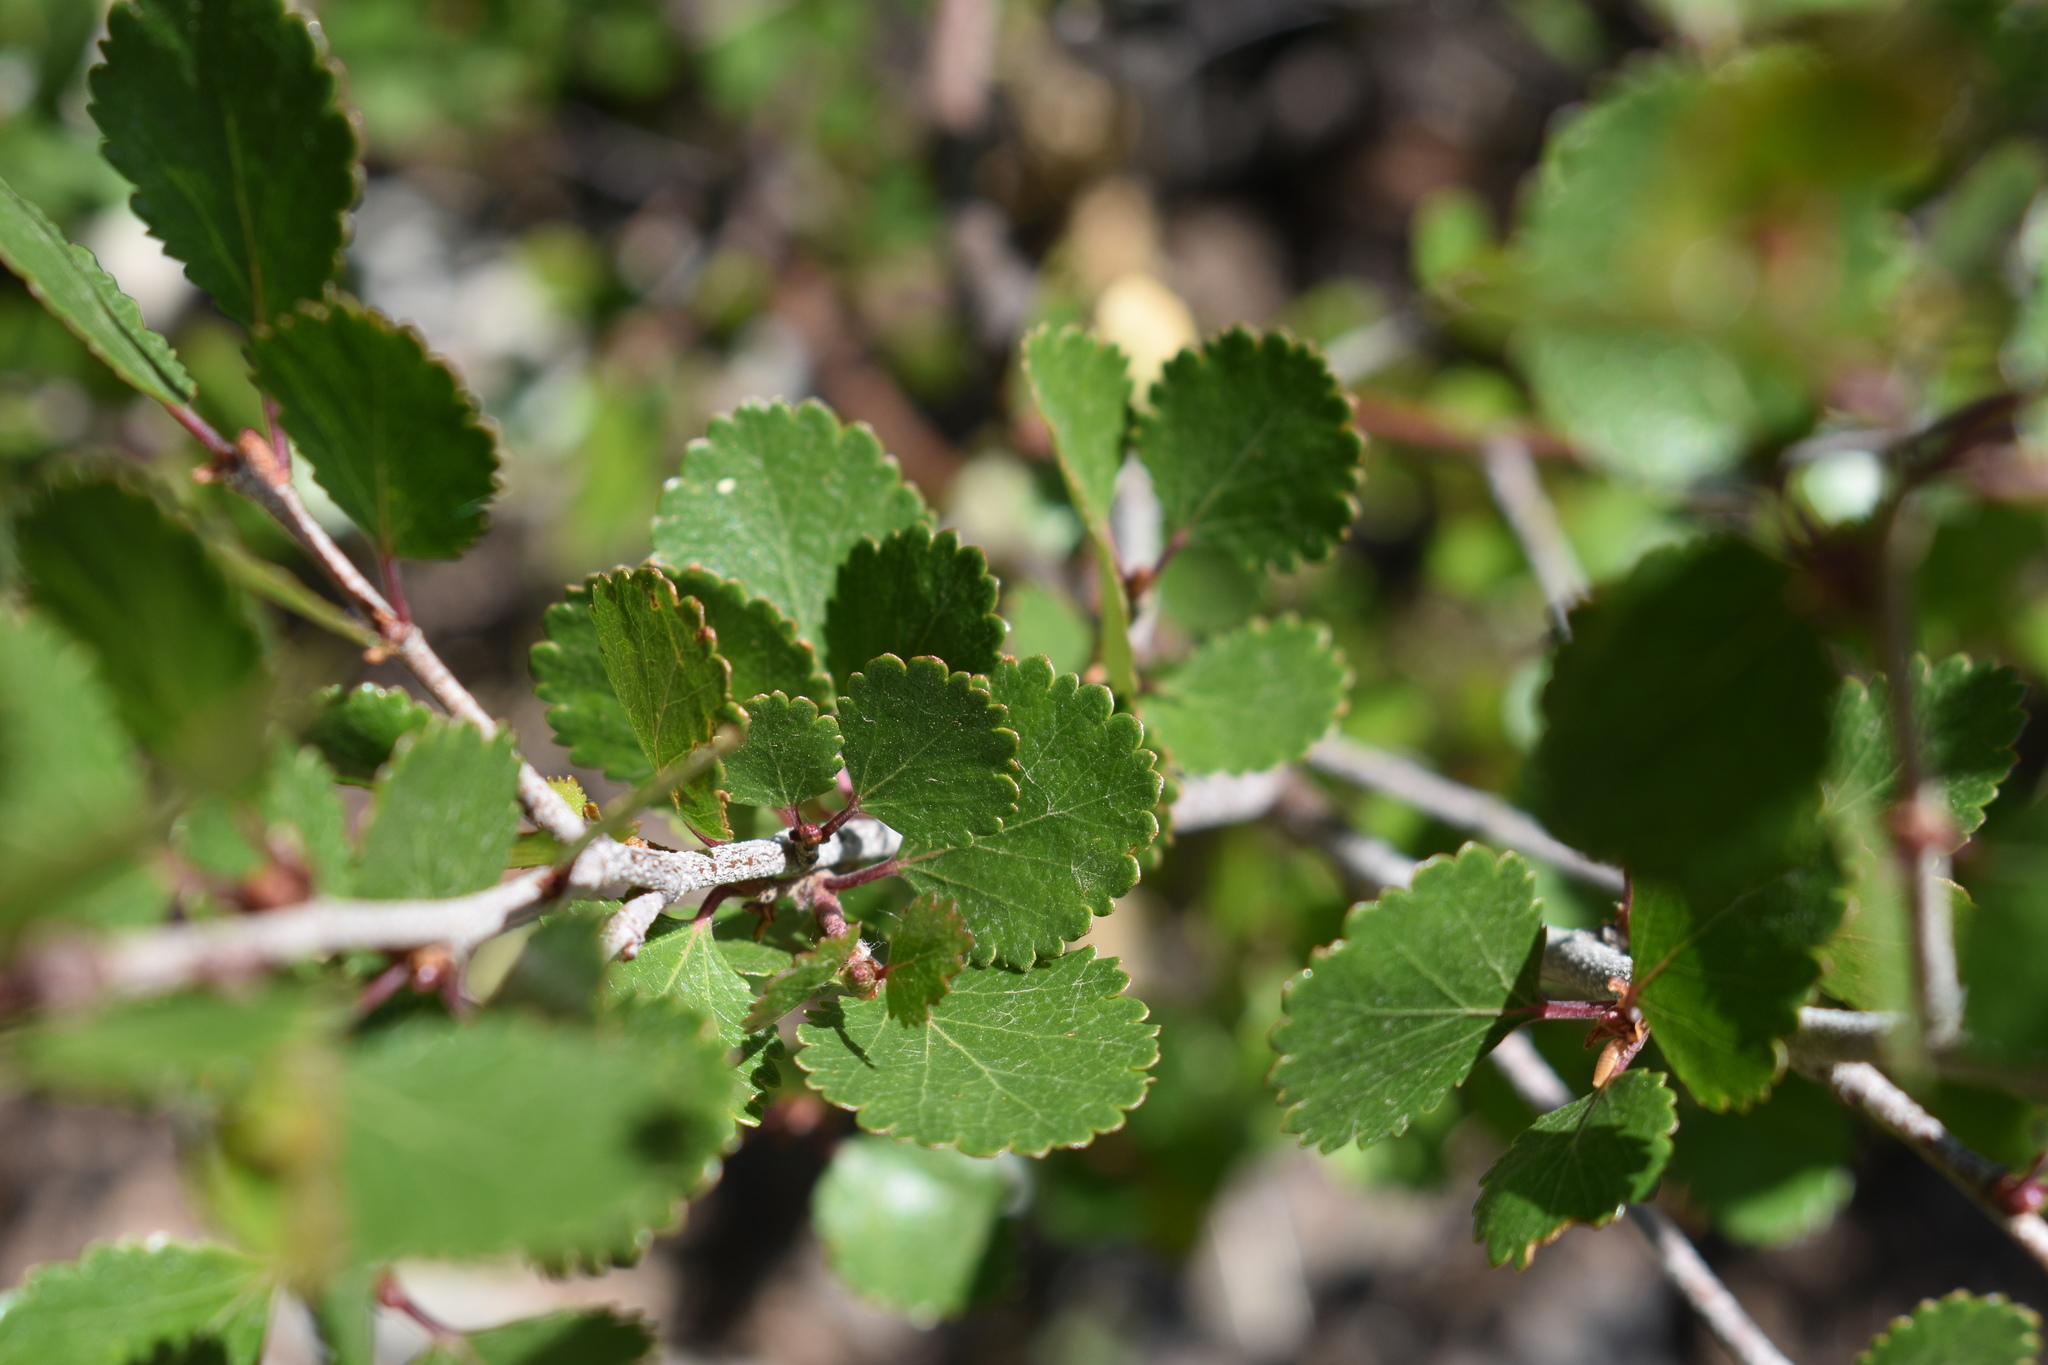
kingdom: Plantae
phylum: Tracheophyta
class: Magnoliopsida
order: Fagales
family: Betulaceae
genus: Betula
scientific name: Betula glandulosa
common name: Dwarf birch
